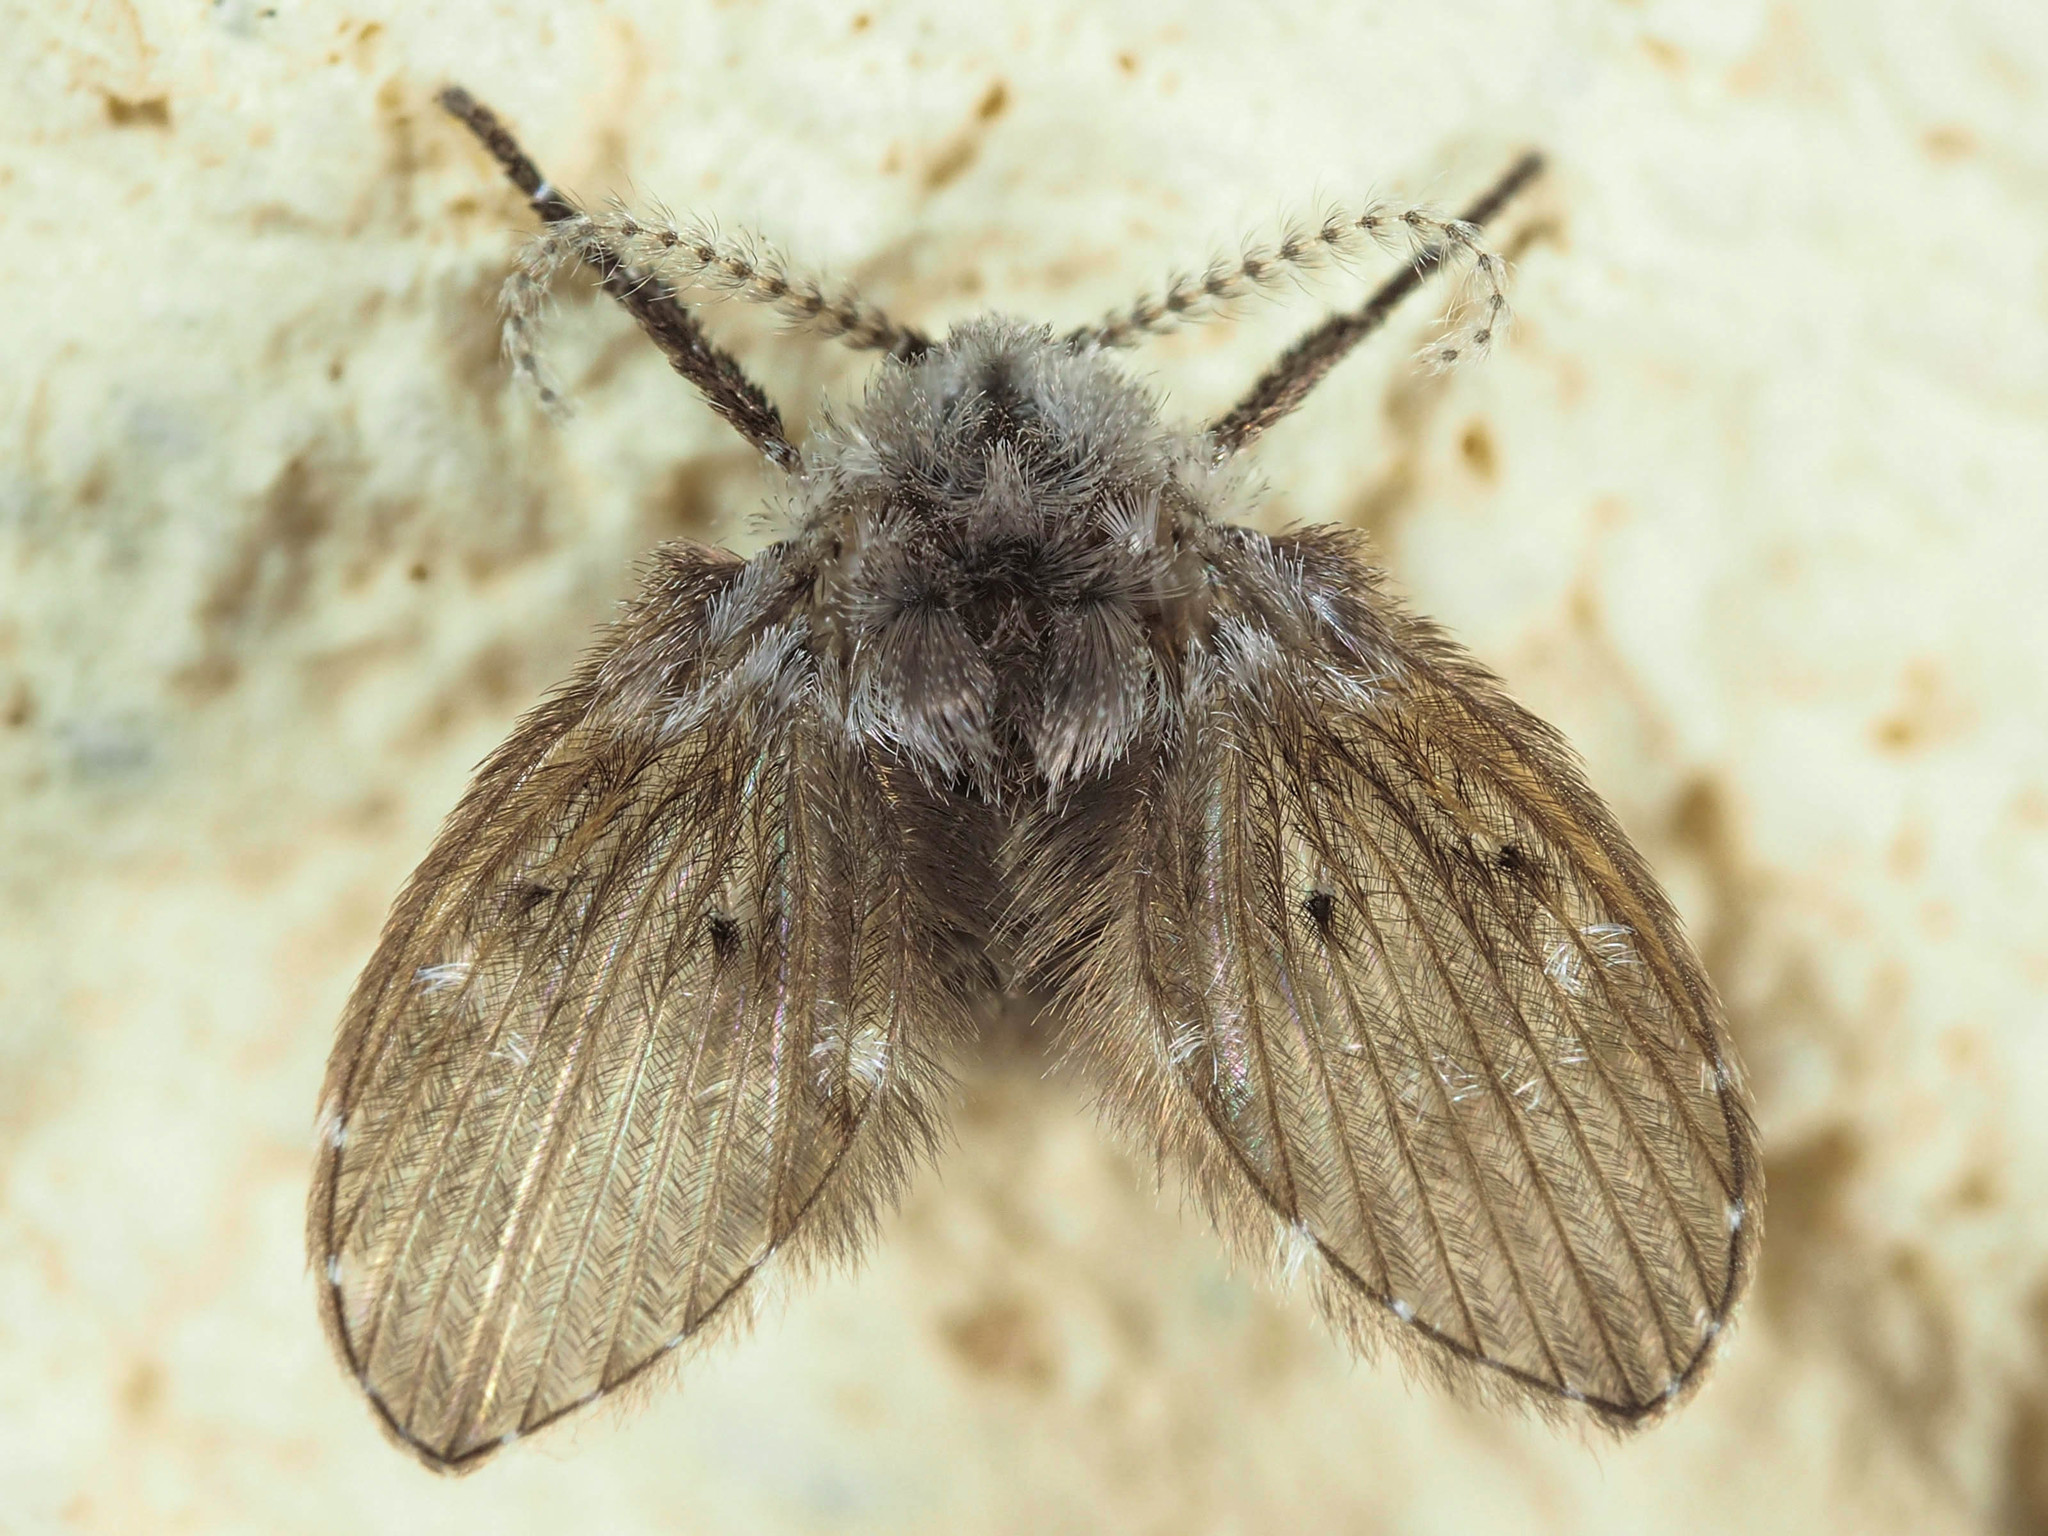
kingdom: Animalia
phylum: Arthropoda
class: Insecta
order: Diptera
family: Psychodidae
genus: Clogmia
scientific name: Clogmia albipunctatus
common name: White-spotted moth fly
